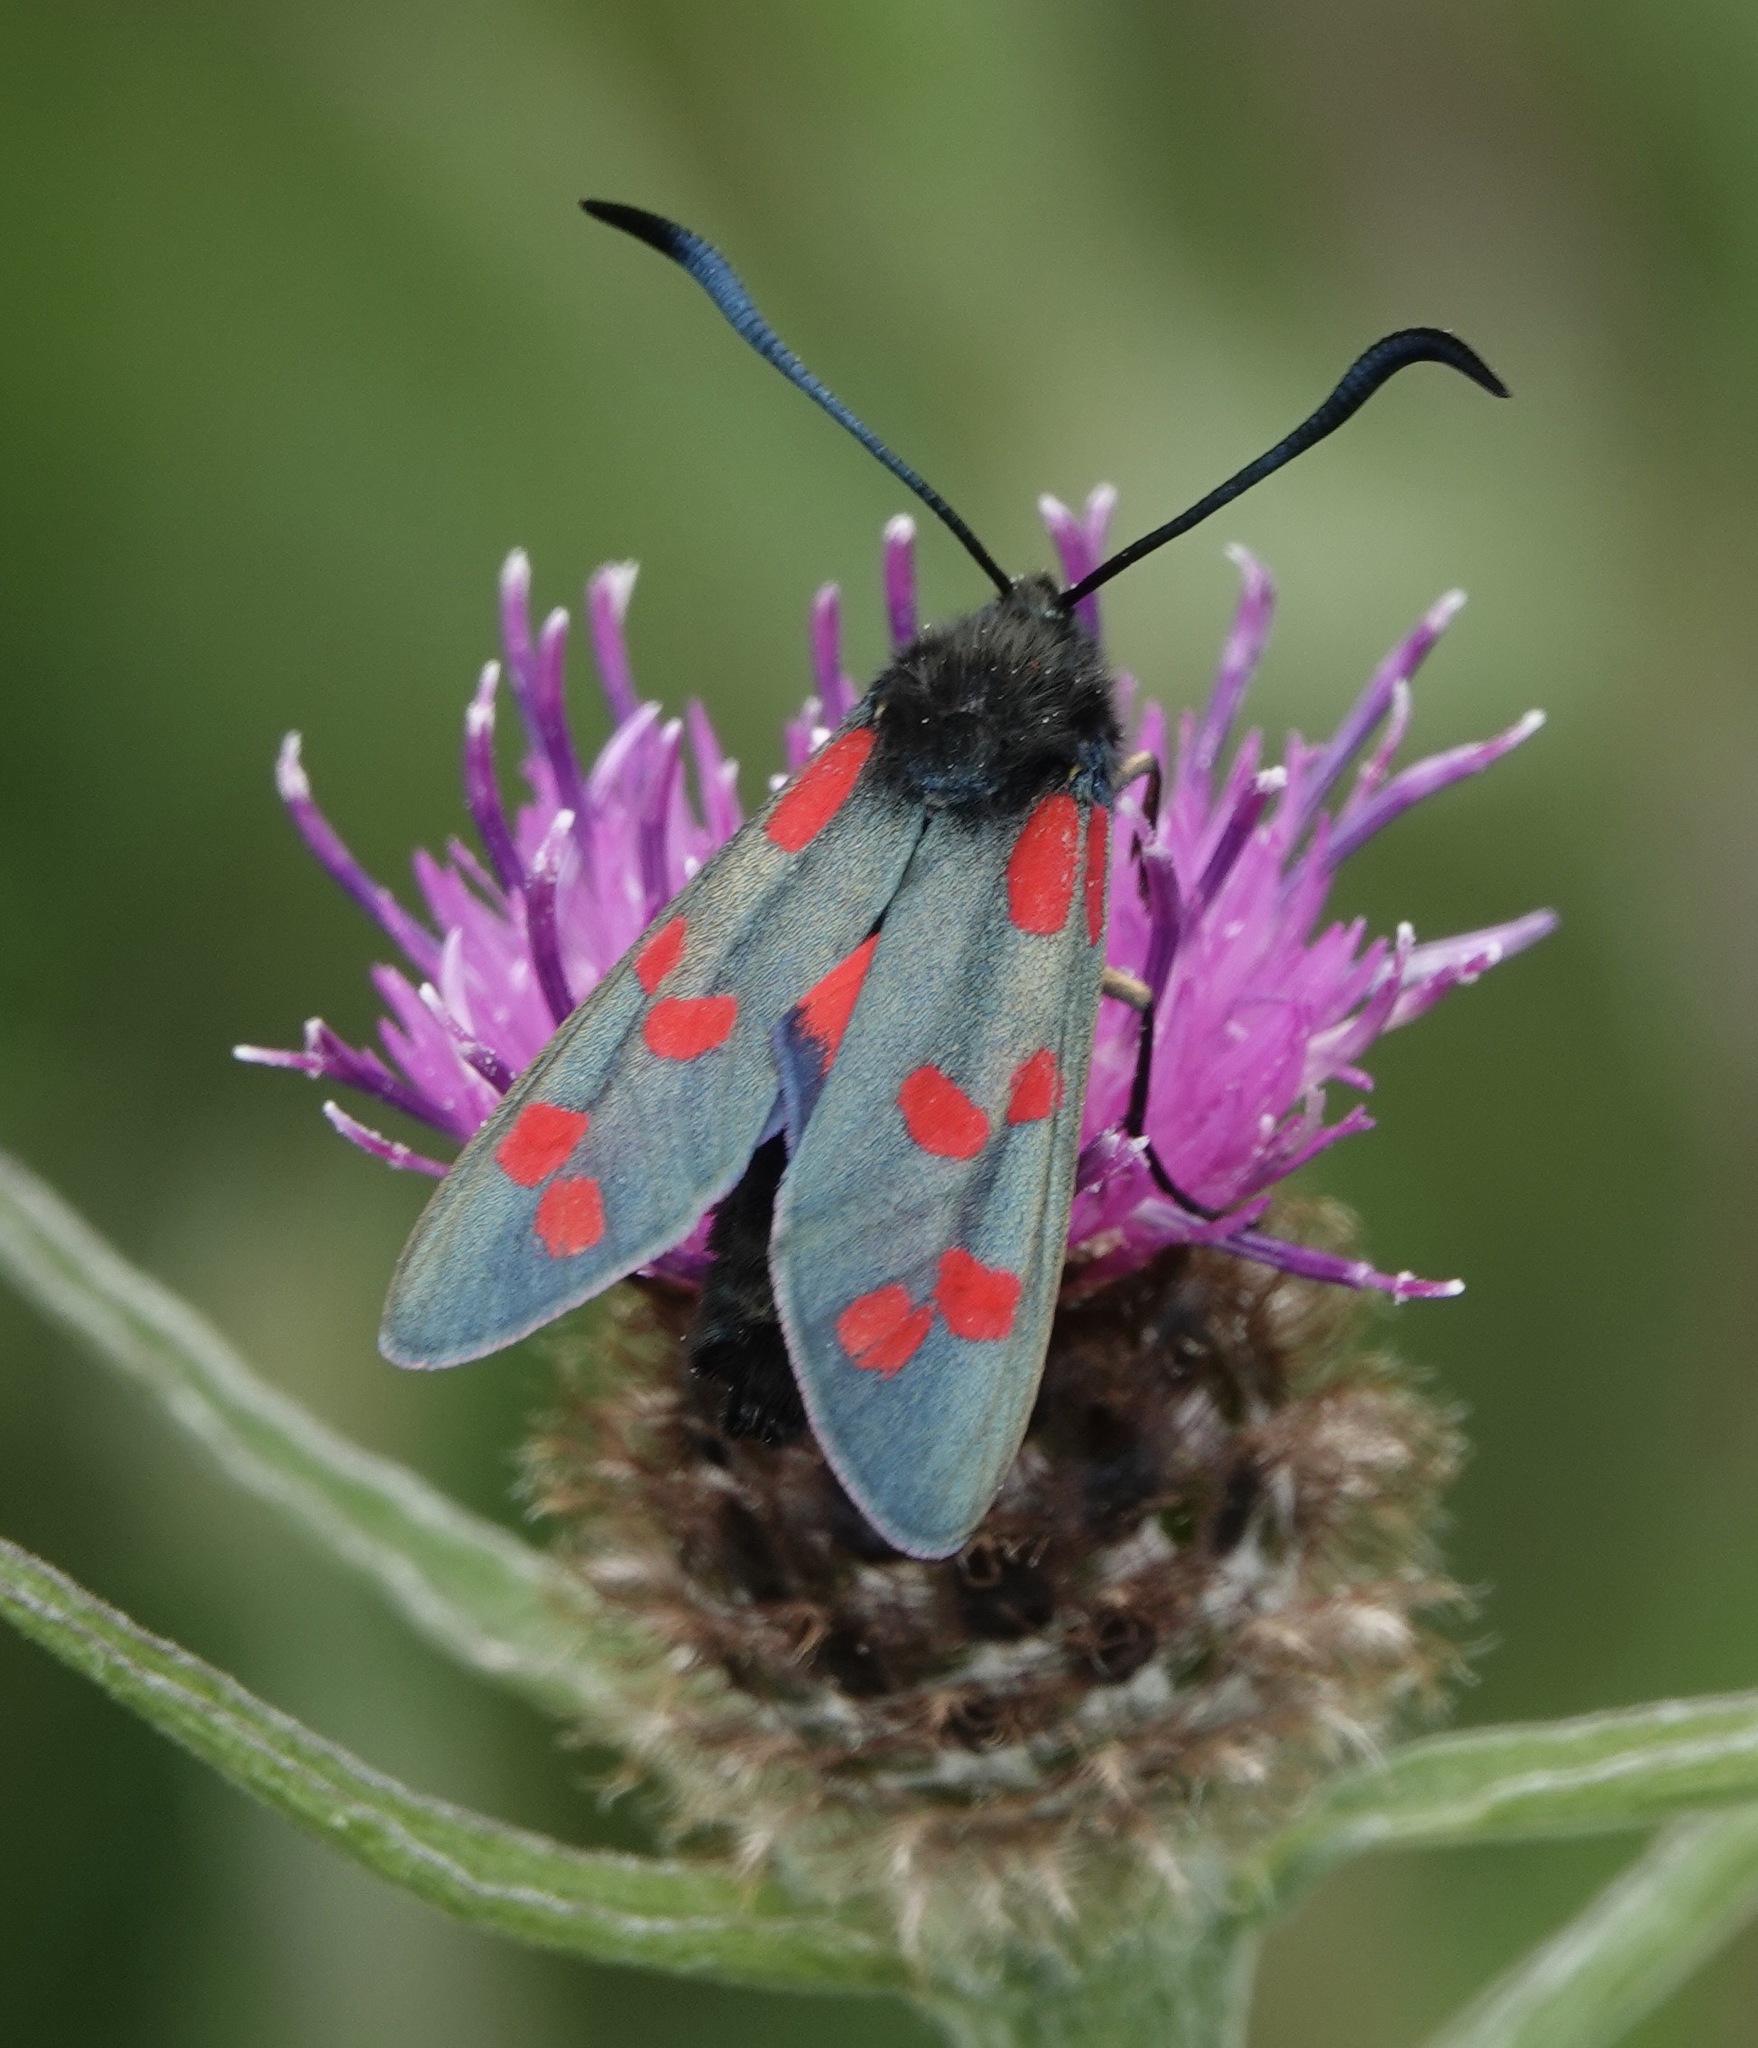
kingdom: Animalia
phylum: Arthropoda
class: Insecta
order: Lepidoptera
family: Zygaenidae
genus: Zygaena
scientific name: Zygaena filipendulae
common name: Six-spot burnet
